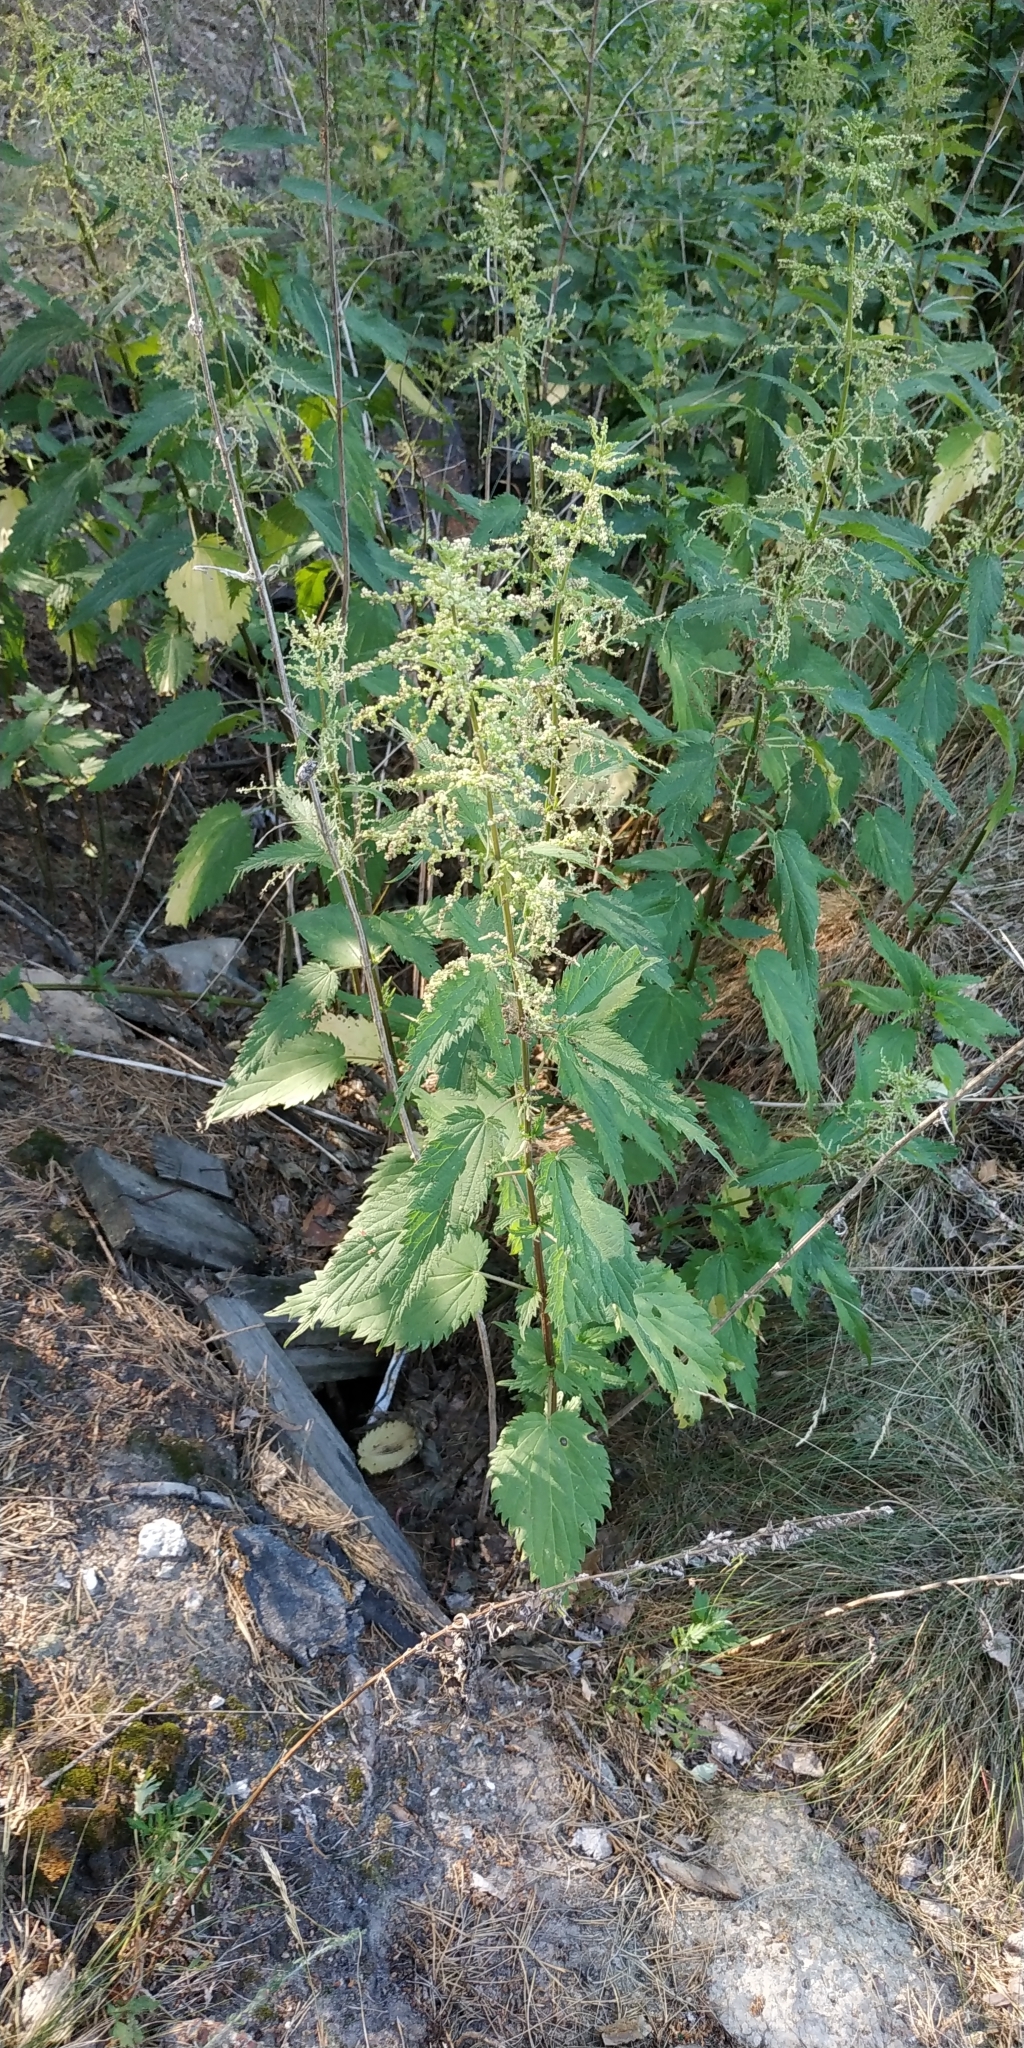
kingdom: Plantae
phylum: Tracheophyta
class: Magnoliopsida
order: Rosales
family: Urticaceae
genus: Urtica
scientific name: Urtica galeopsifolia
